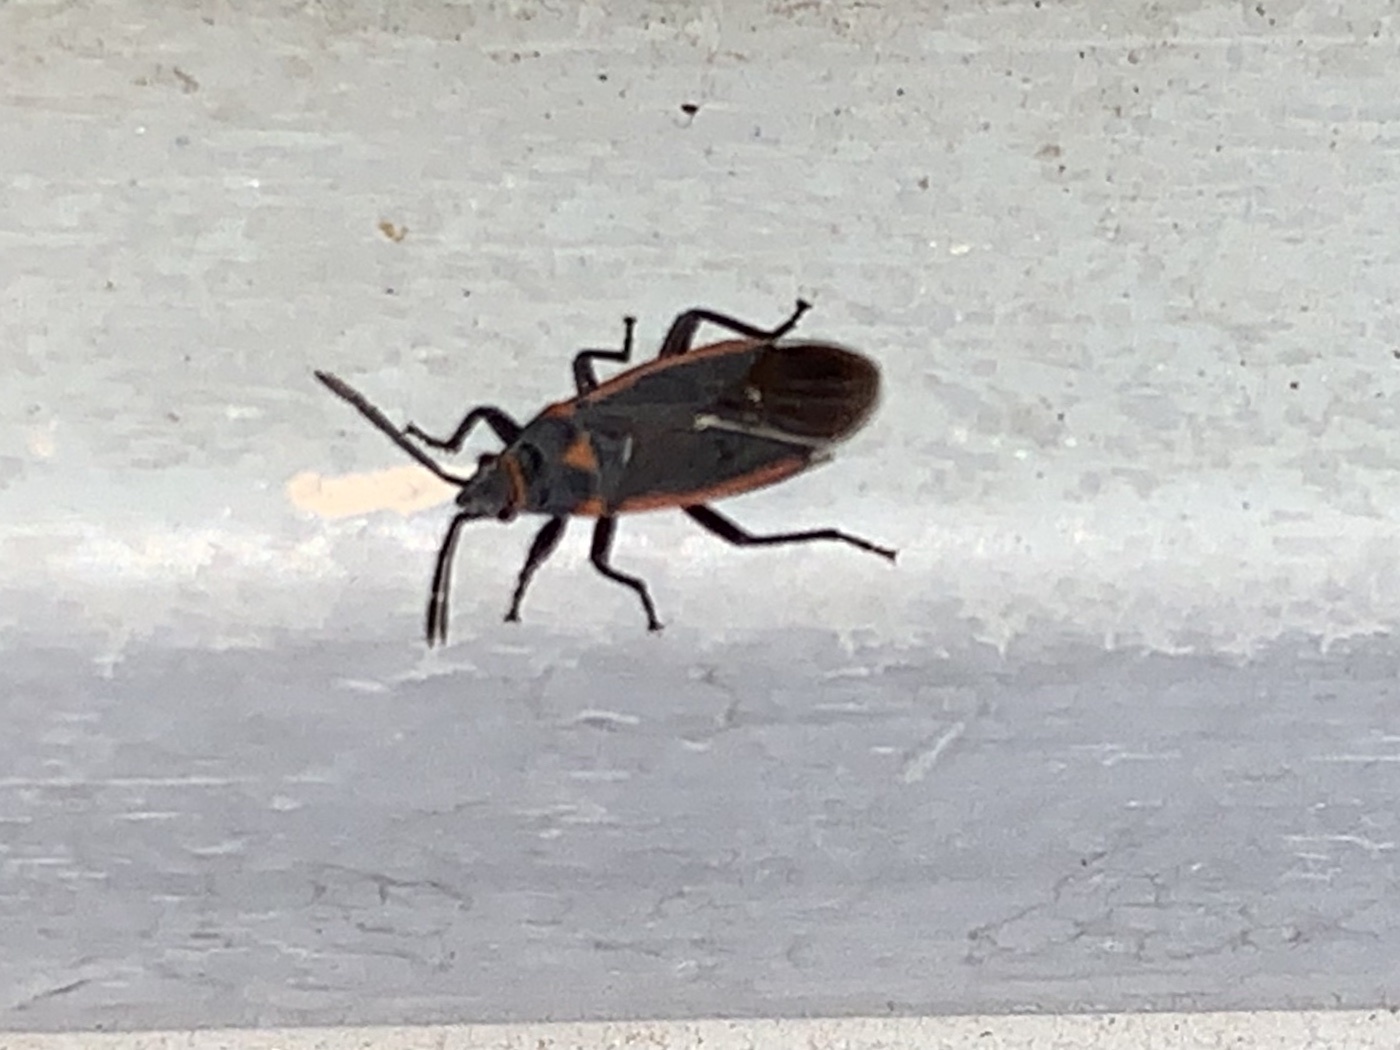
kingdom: Animalia
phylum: Arthropoda
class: Insecta
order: Hemiptera
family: Lygaeidae
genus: Melacoryphus
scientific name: Melacoryphus lateralis
